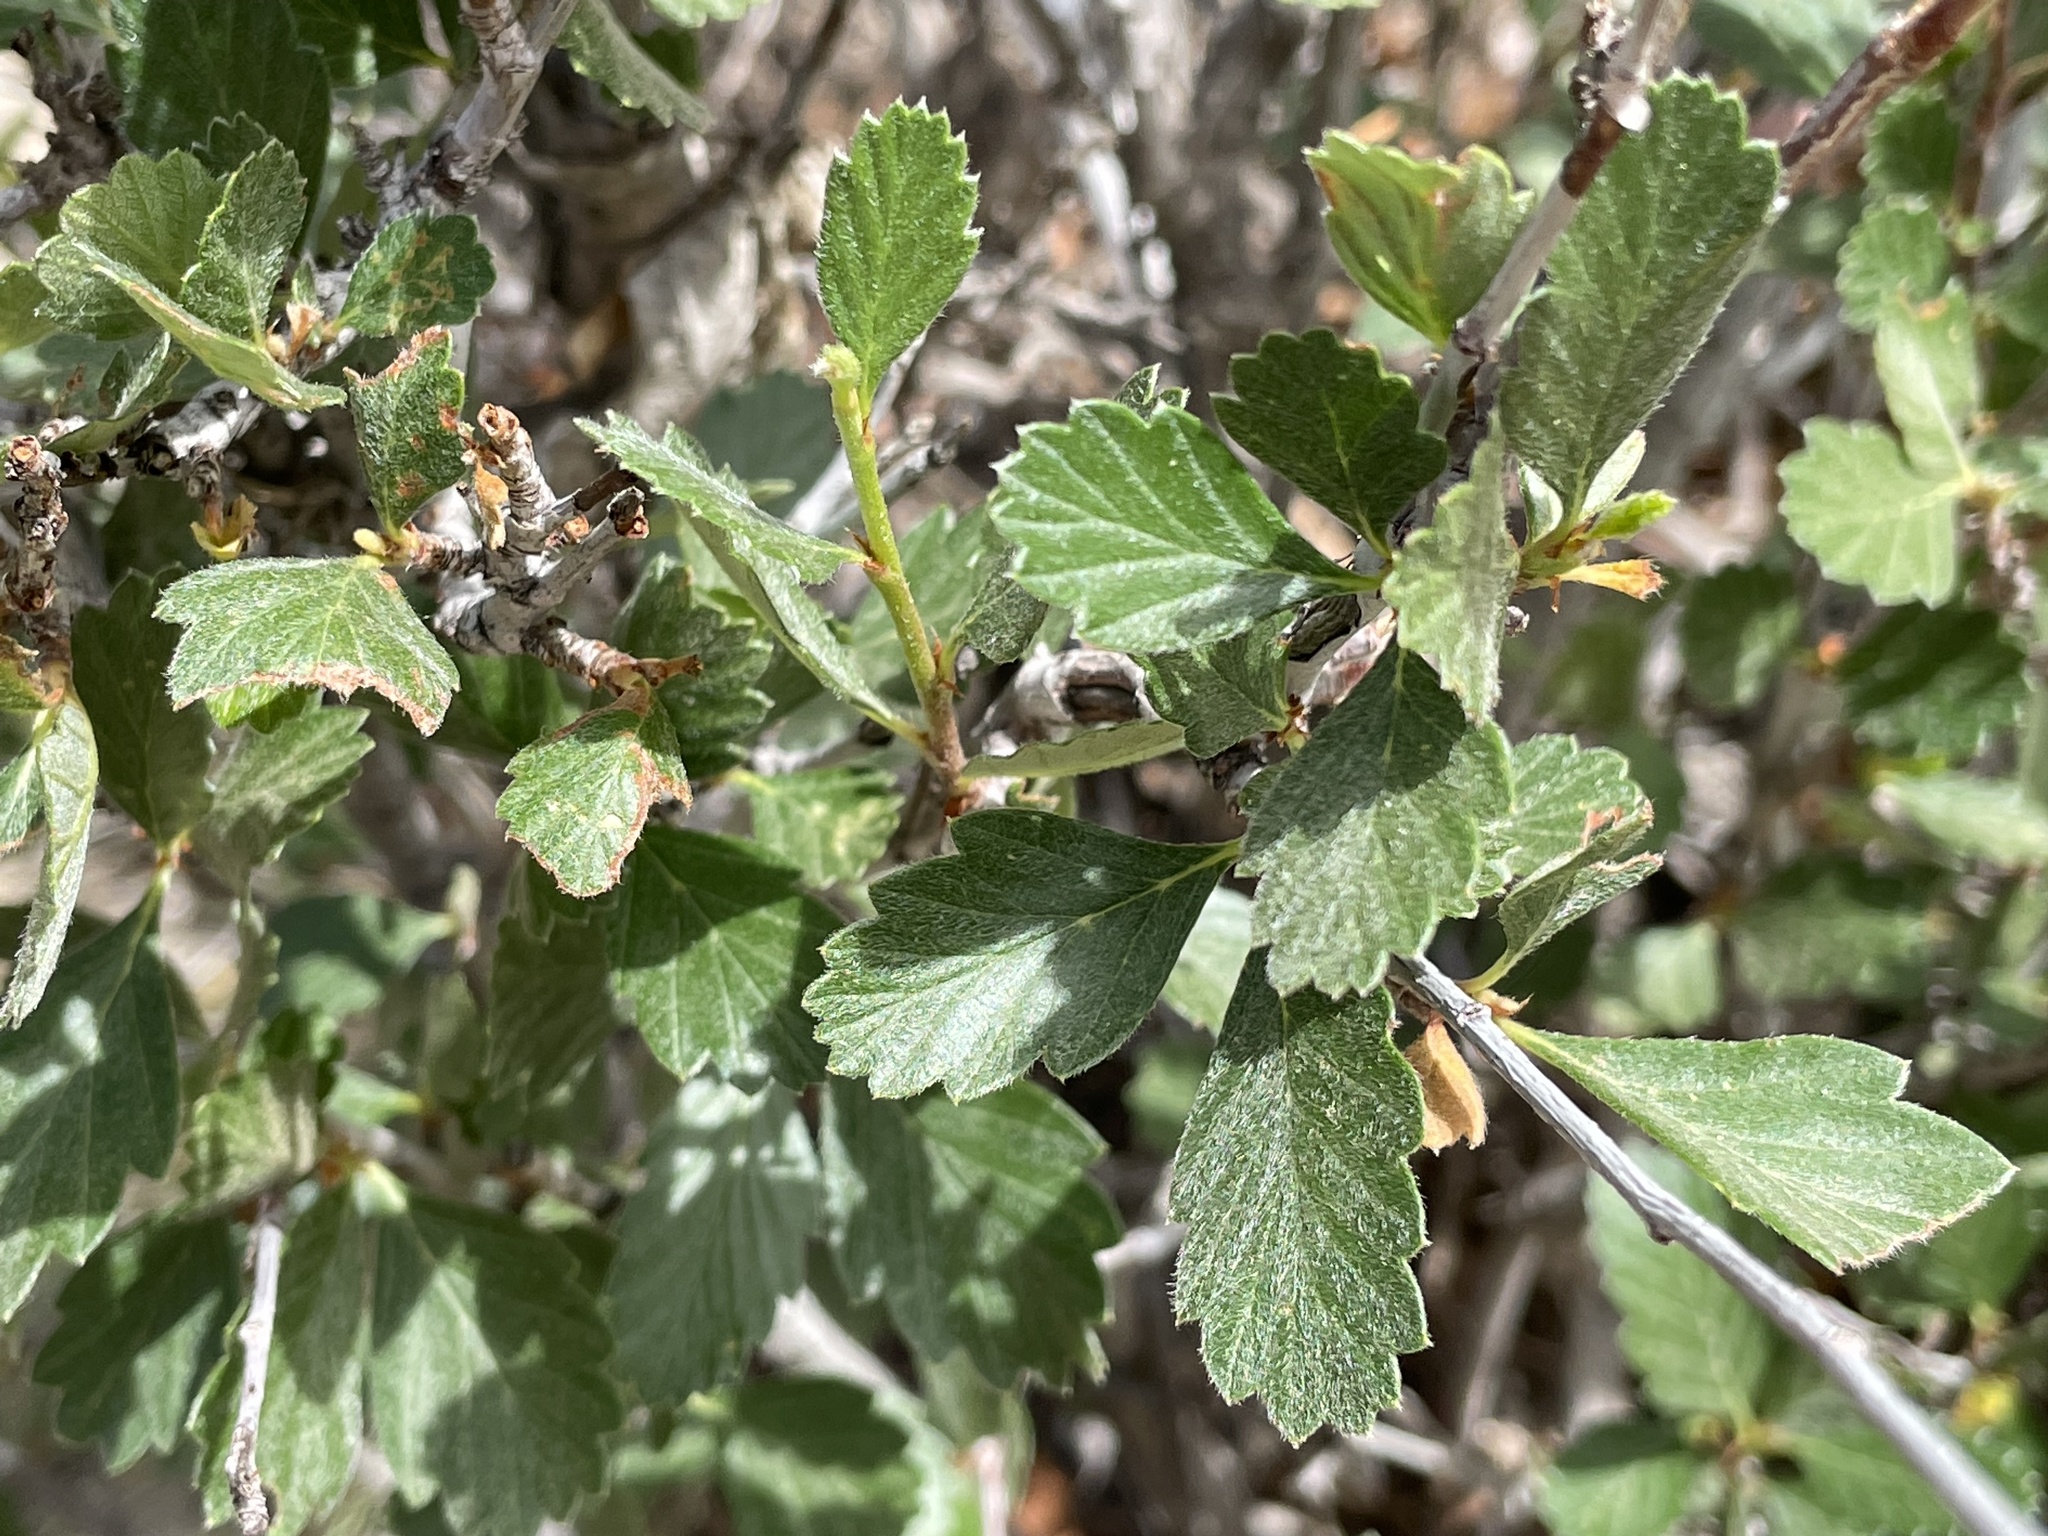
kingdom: Plantae
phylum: Tracheophyta
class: Magnoliopsida
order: Rosales
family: Rosaceae
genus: Cercocarpus
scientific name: Cercocarpus montanus
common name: Alder-leaf cercocarpus
